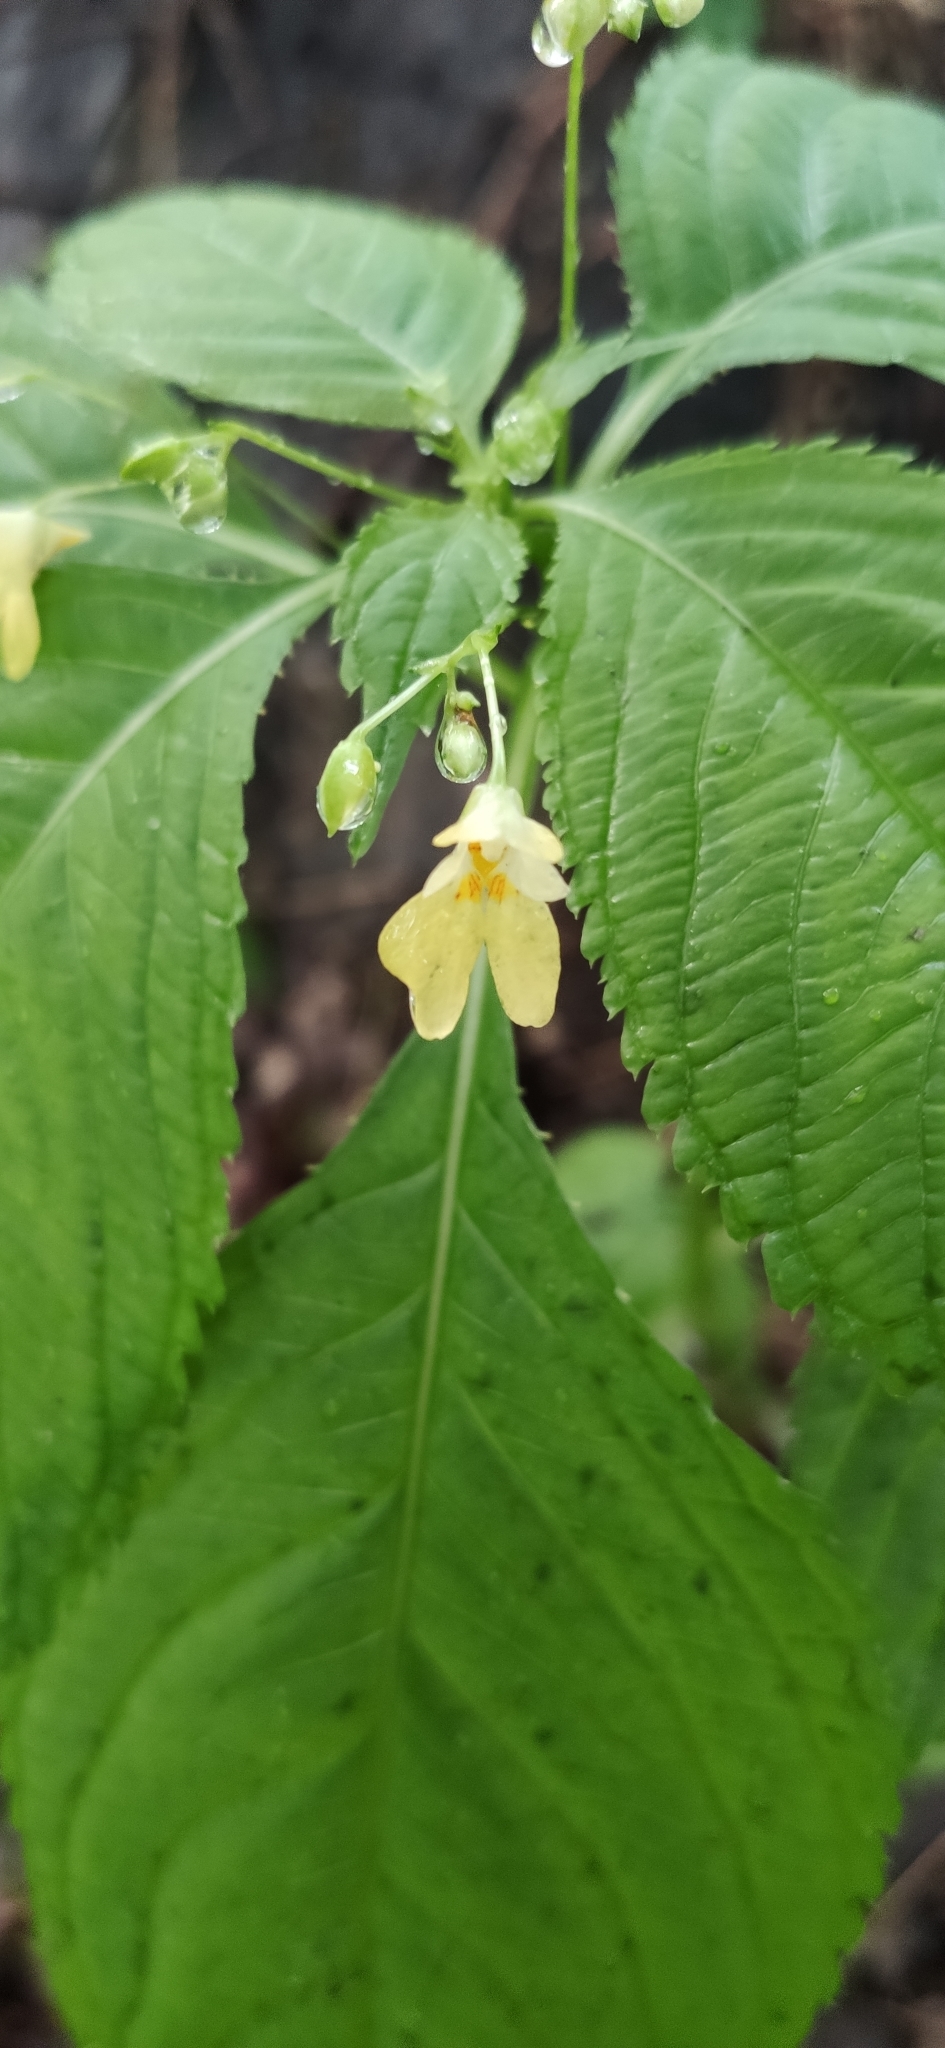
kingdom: Plantae
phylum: Tracheophyta
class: Magnoliopsida
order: Ericales
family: Balsaminaceae
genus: Impatiens
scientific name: Impatiens parviflora
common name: Small balsam
